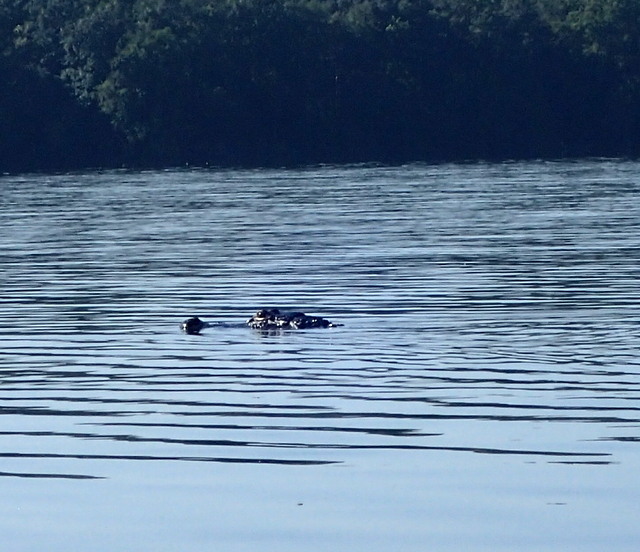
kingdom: Animalia
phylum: Chordata
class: Crocodylia
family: Alligatoridae
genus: Alligator
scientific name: Alligator mississippiensis
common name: American alligator
